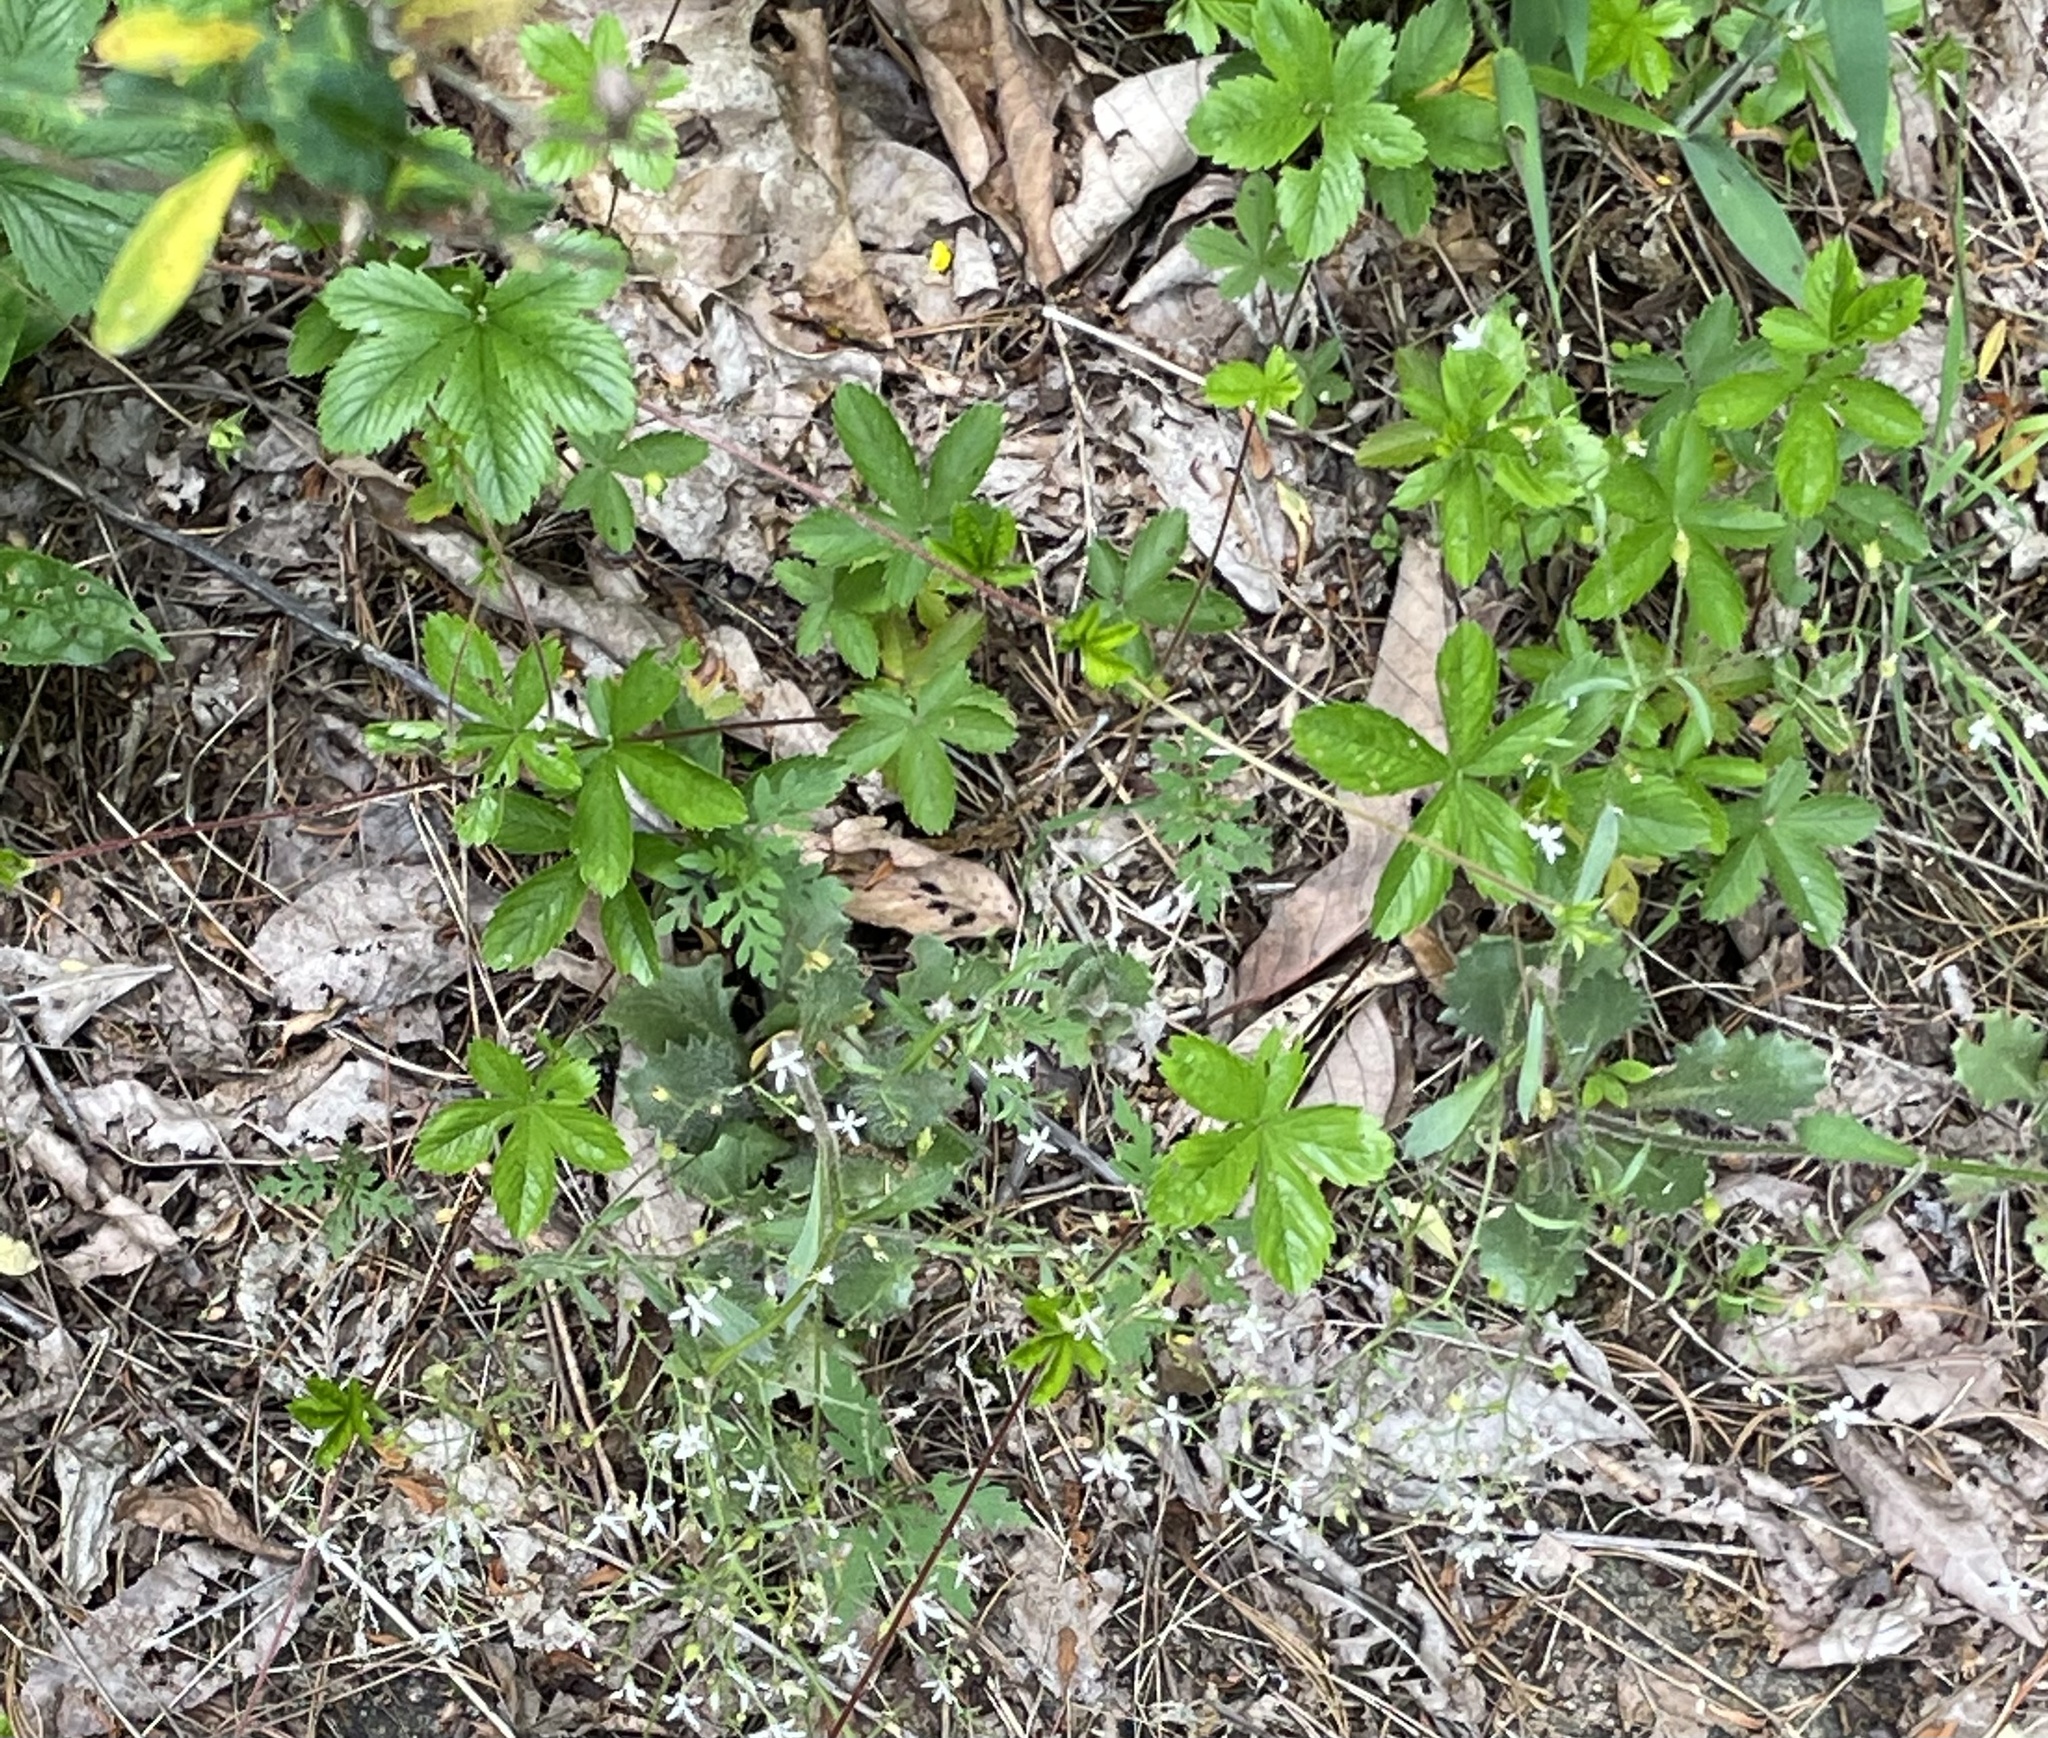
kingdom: Plantae
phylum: Tracheophyta
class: Magnoliopsida
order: Rosales
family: Rosaceae
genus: Potentilla
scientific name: Potentilla simplex
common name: Old field cinquefoil
